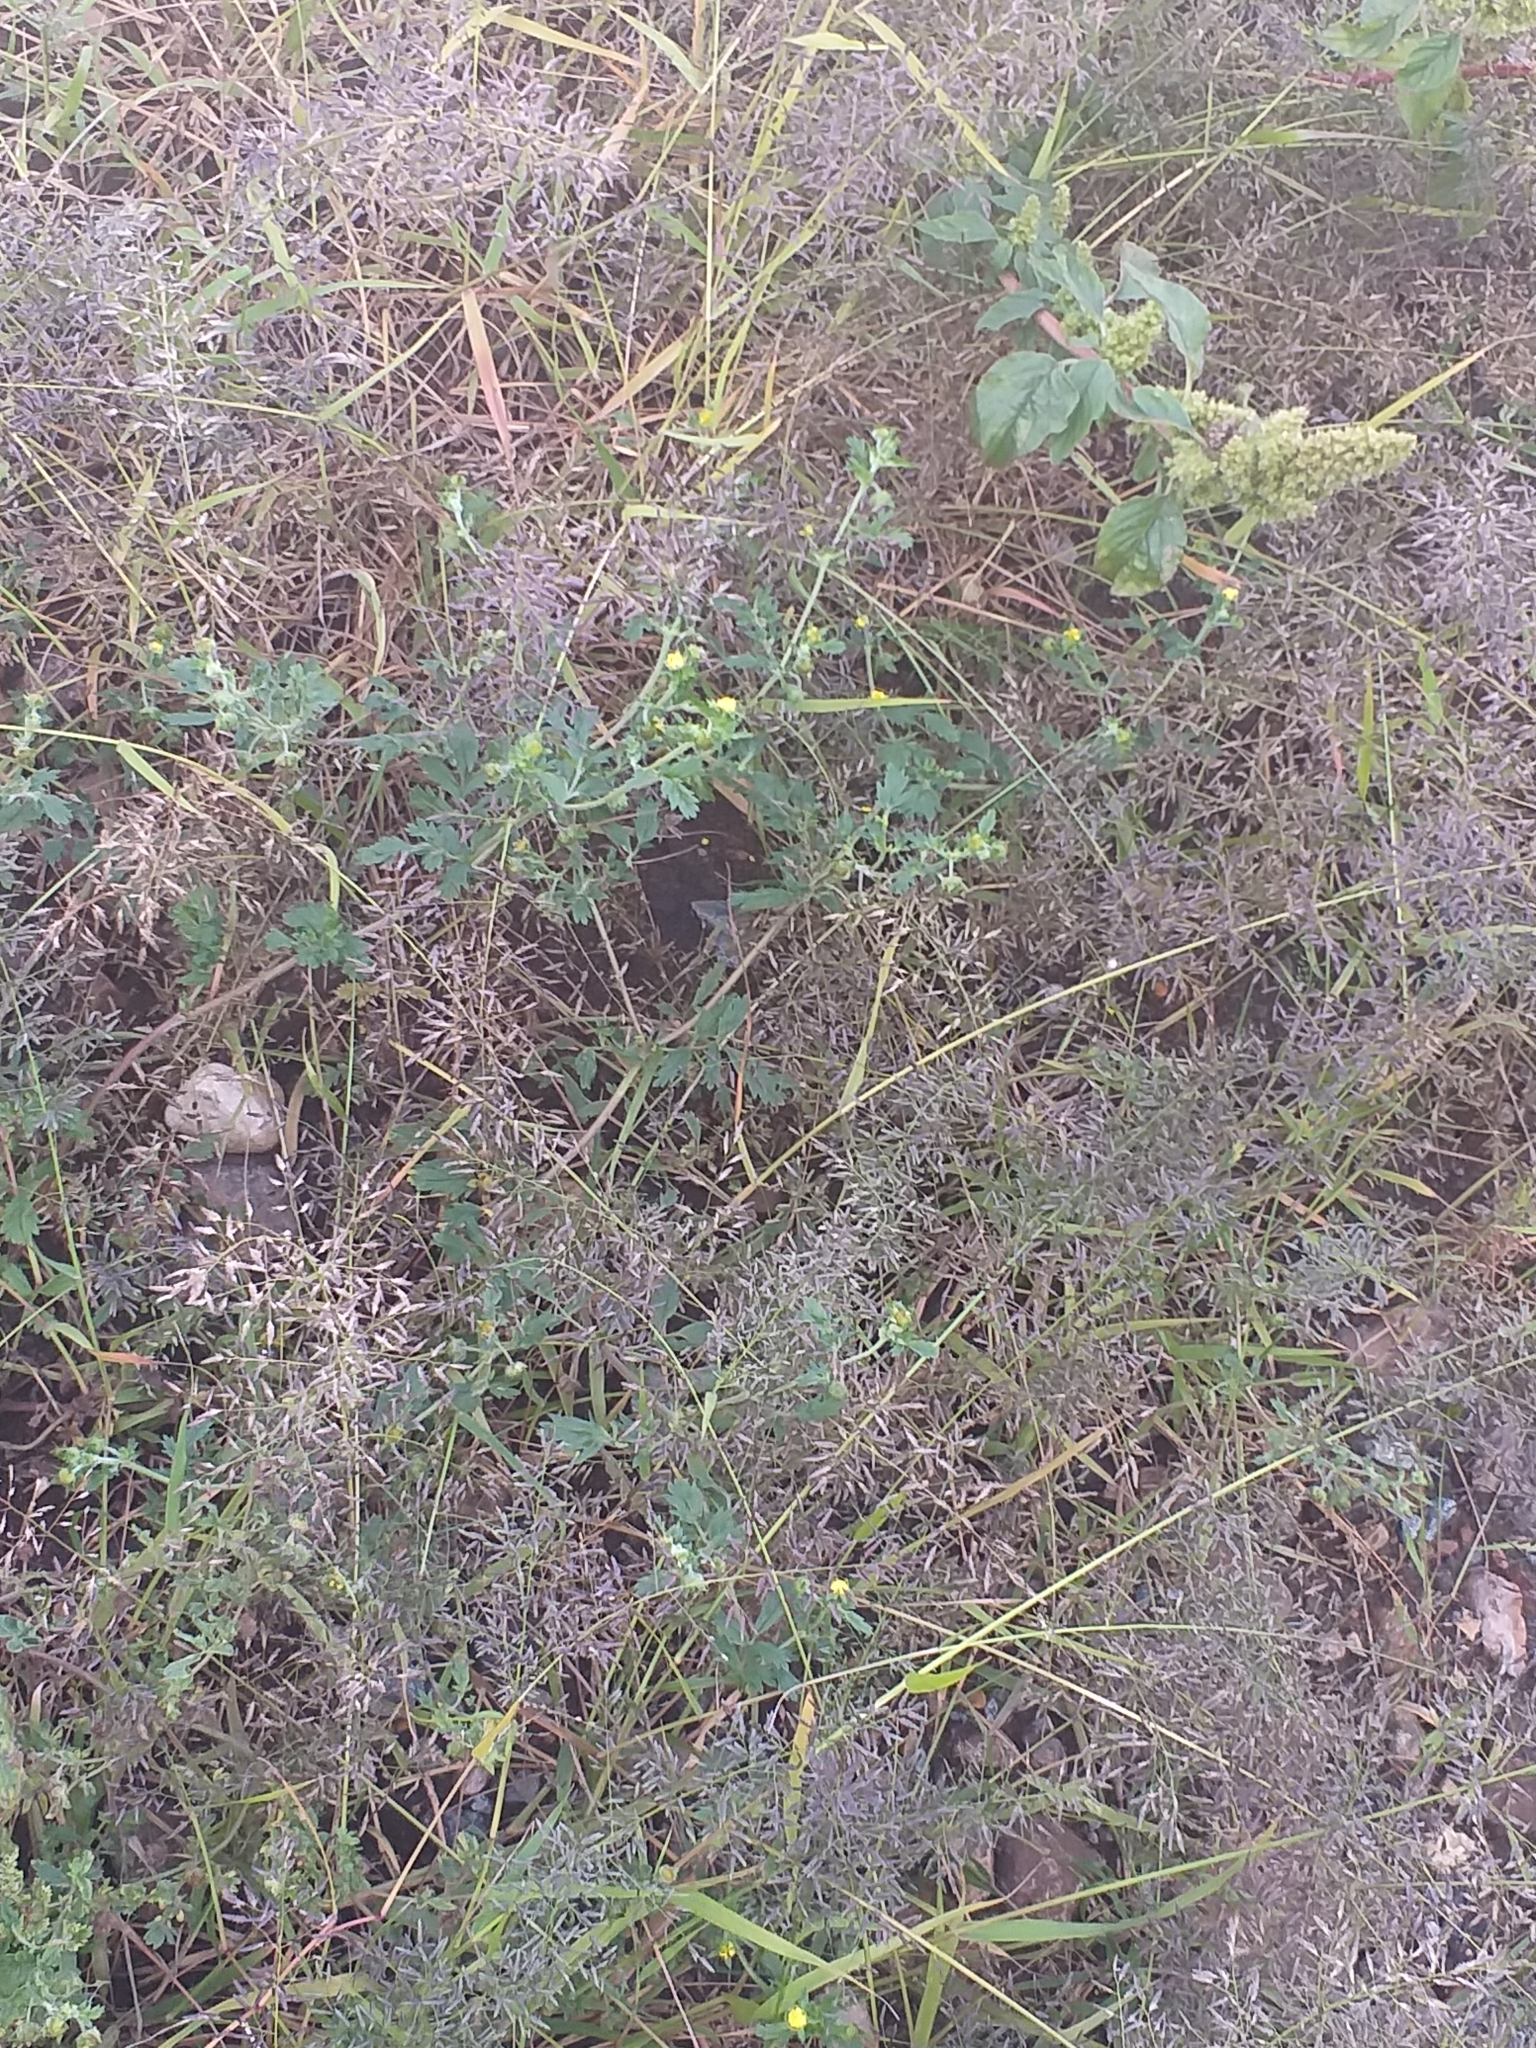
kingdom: Plantae
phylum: Tracheophyta
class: Liliopsida
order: Poales
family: Poaceae
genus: Eragrostis
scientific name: Eragrostis minor
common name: Small love-grass
